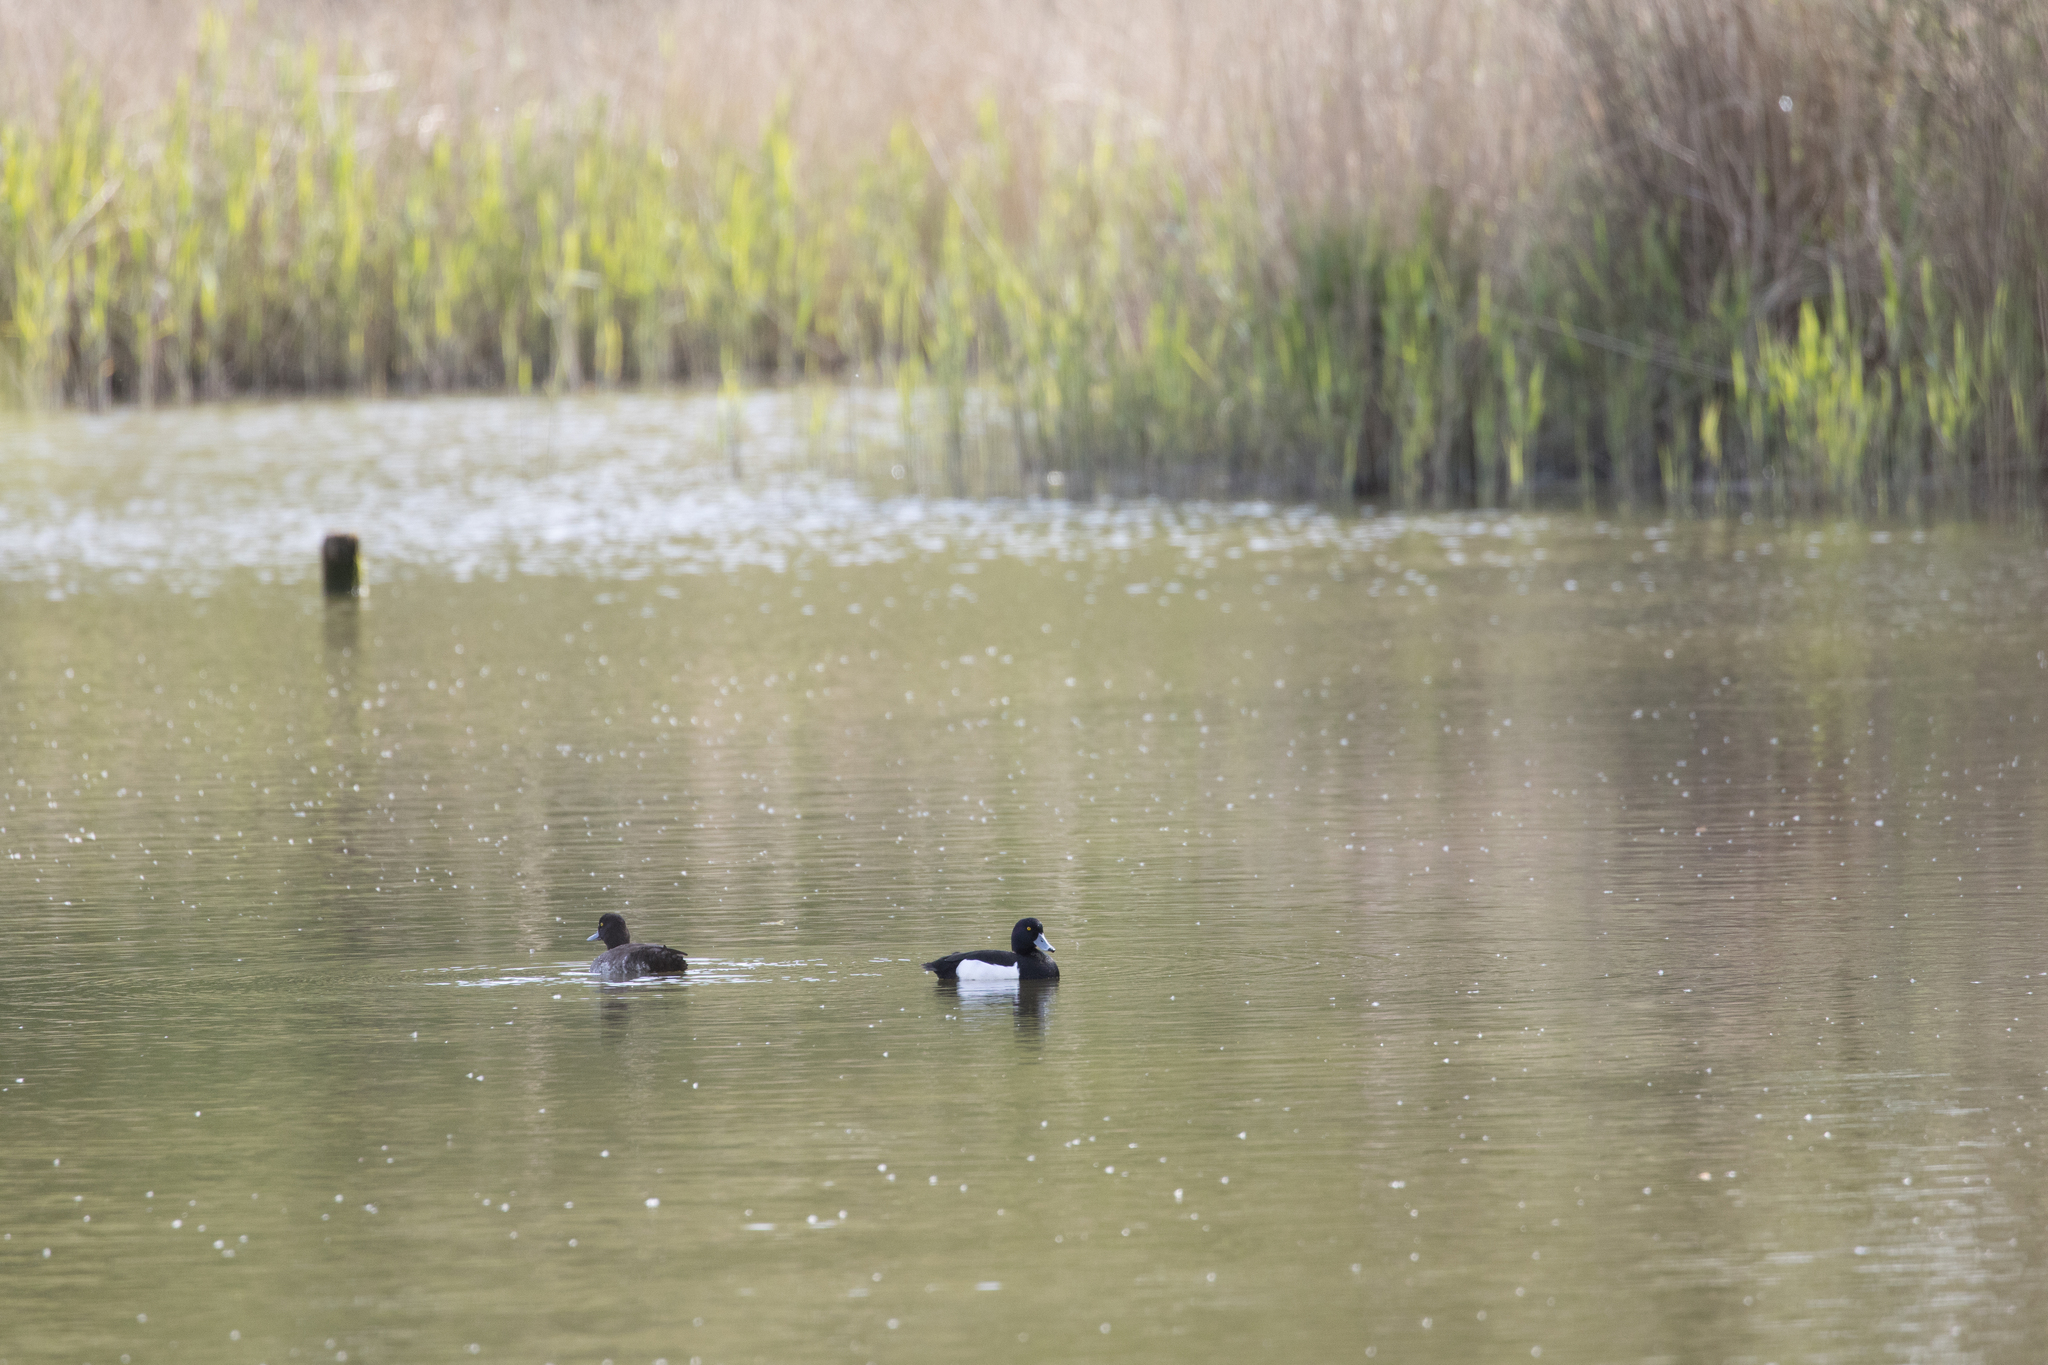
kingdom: Animalia
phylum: Chordata
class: Aves
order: Anseriformes
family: Anatidae
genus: Aythya
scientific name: Aythya fuligula
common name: Tufted duck
